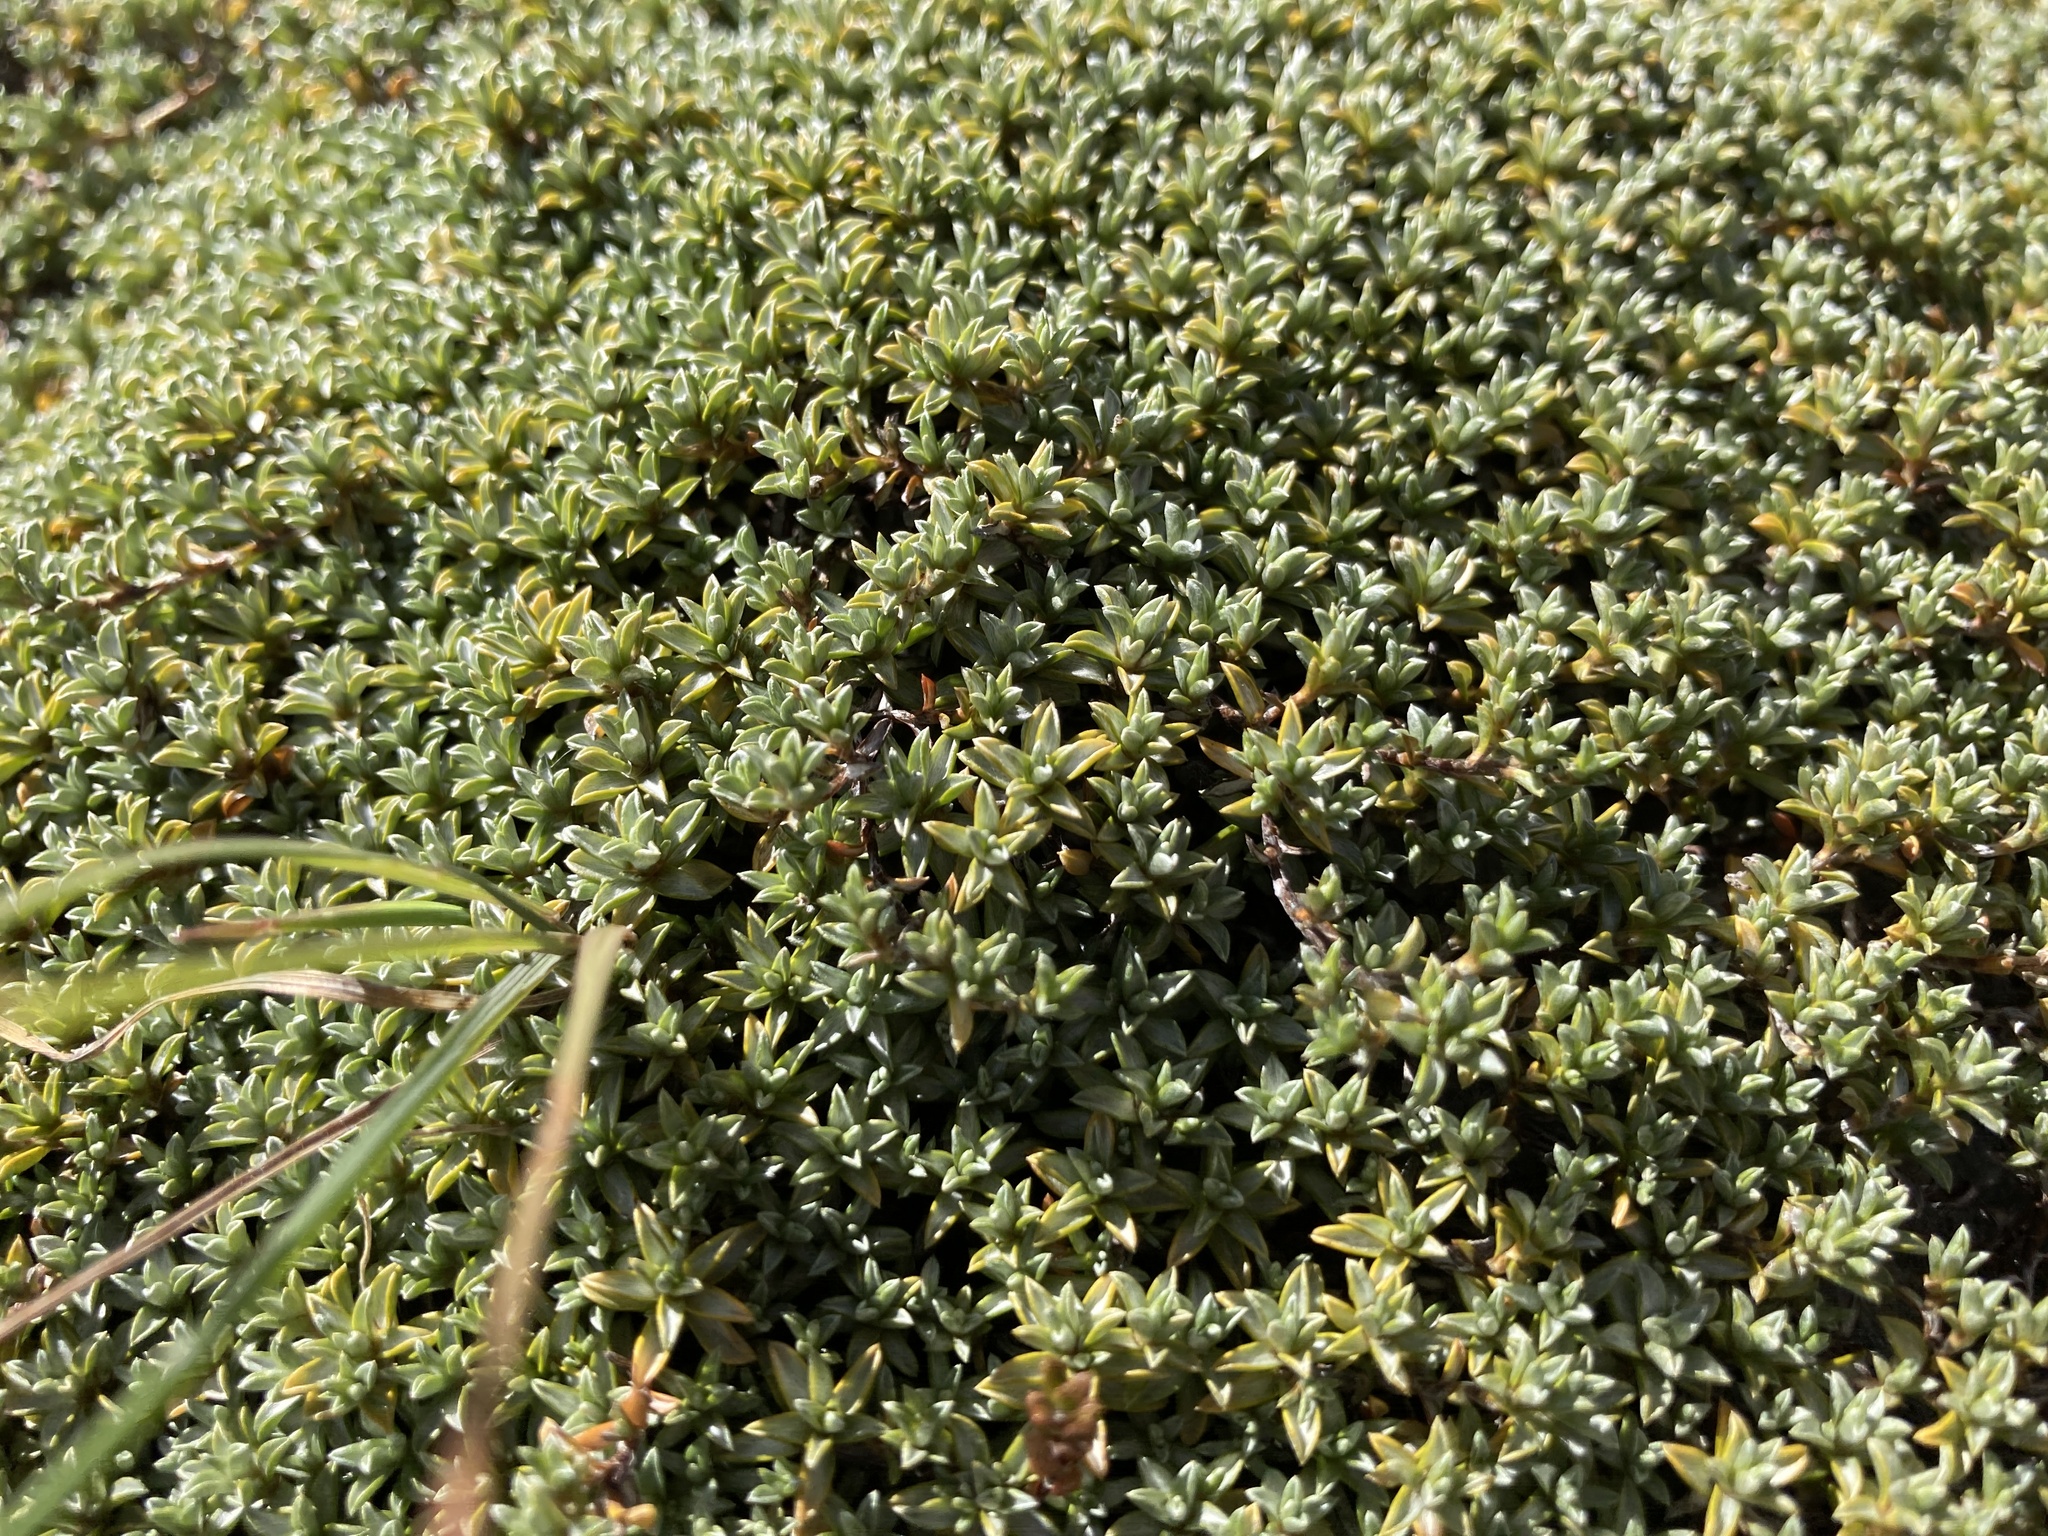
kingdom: Plantae
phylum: Tracheophyta
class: Magnoliopsida
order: Asterales
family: Asteraceae
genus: Raoulia
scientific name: Raoulia tenuicaulis
